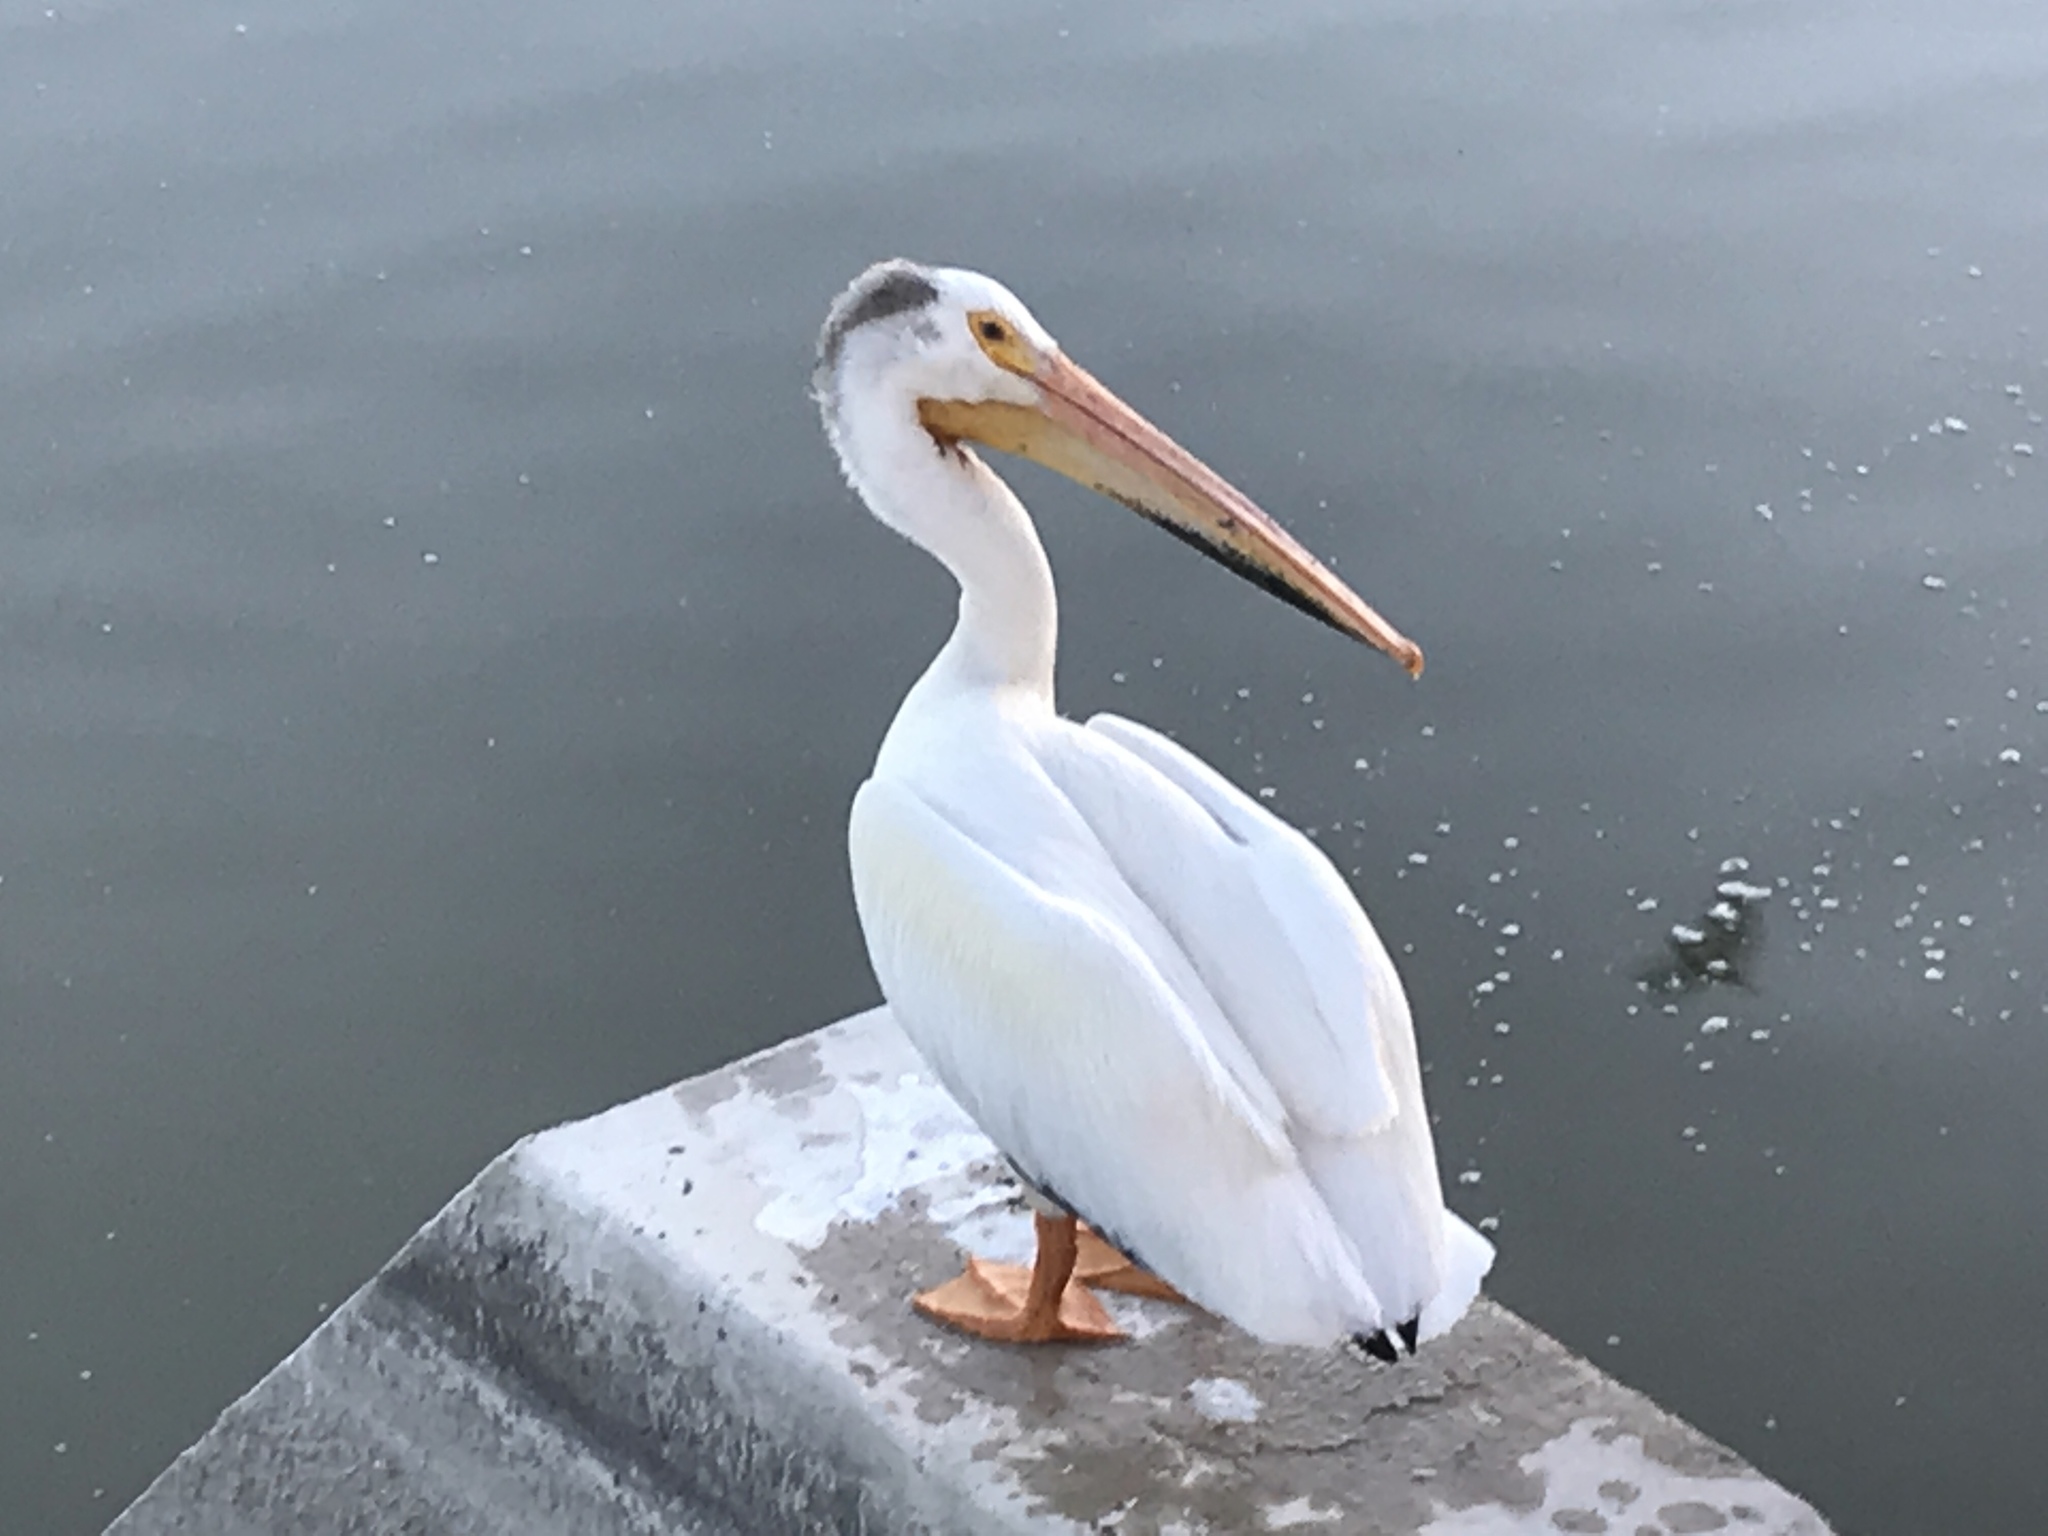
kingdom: Animalia
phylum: Chordata
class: Aves
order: Pelecaniformes
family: Pelecanidae
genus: Pelecanus
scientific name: Pelecanus erythrorhynchos
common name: American white pelican
